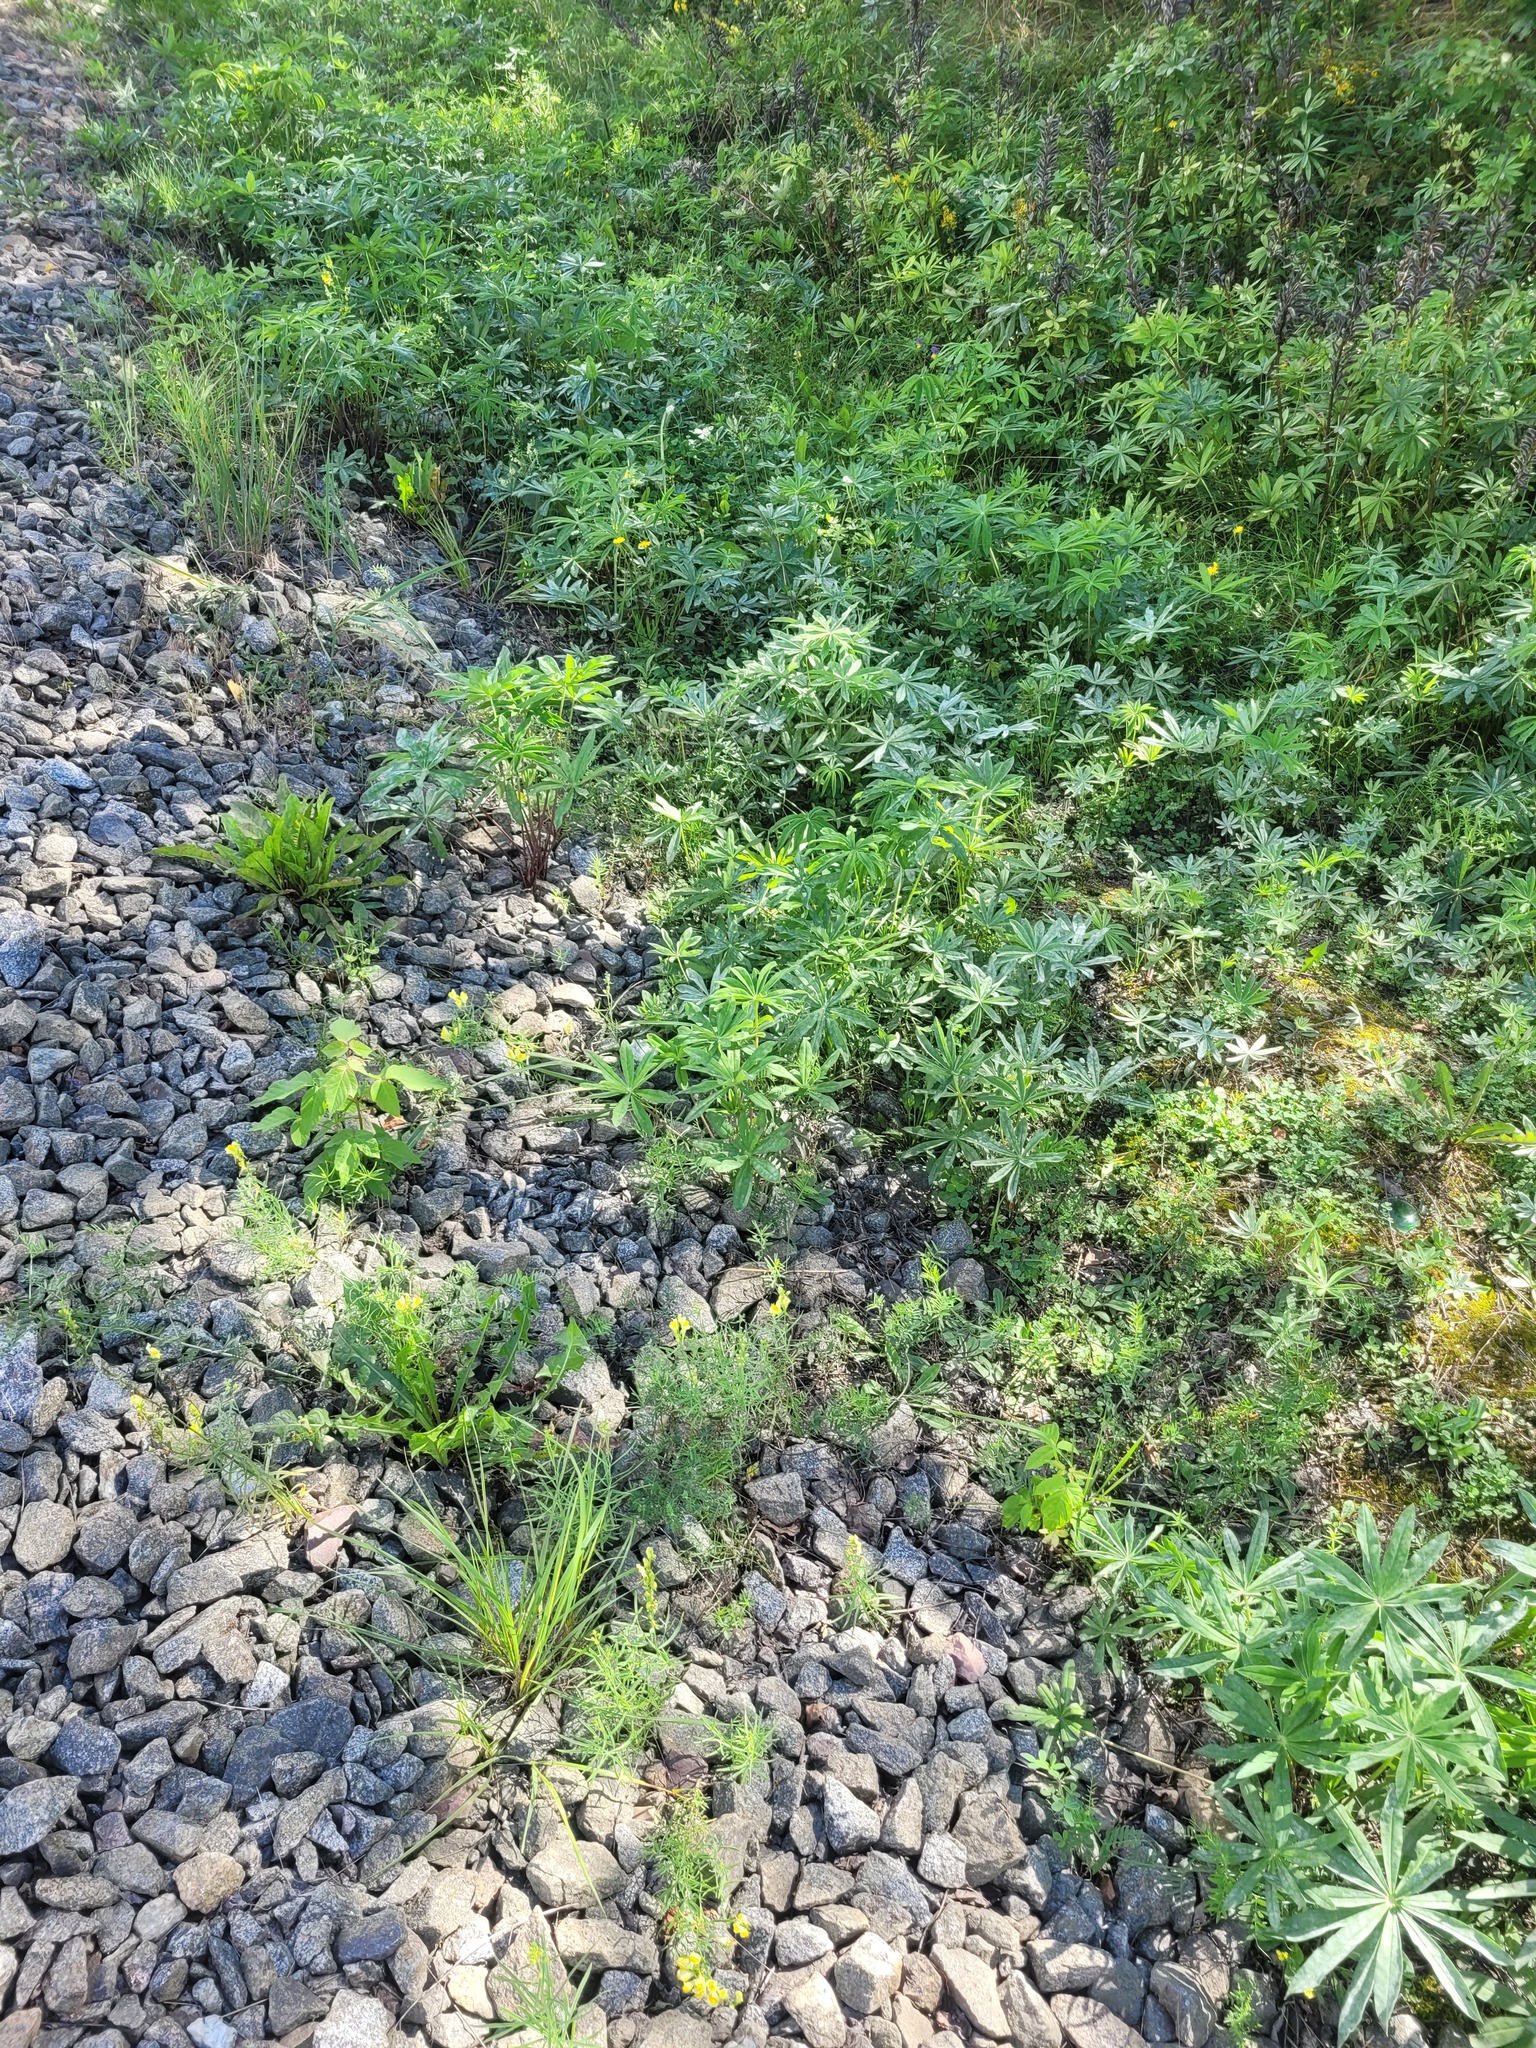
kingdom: Plantae
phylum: Tracheophyta
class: Magnoliopsida
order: Fabales
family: Fabaceae
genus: Lupinus
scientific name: Lupinus polyphyllus
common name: Garden lupin
